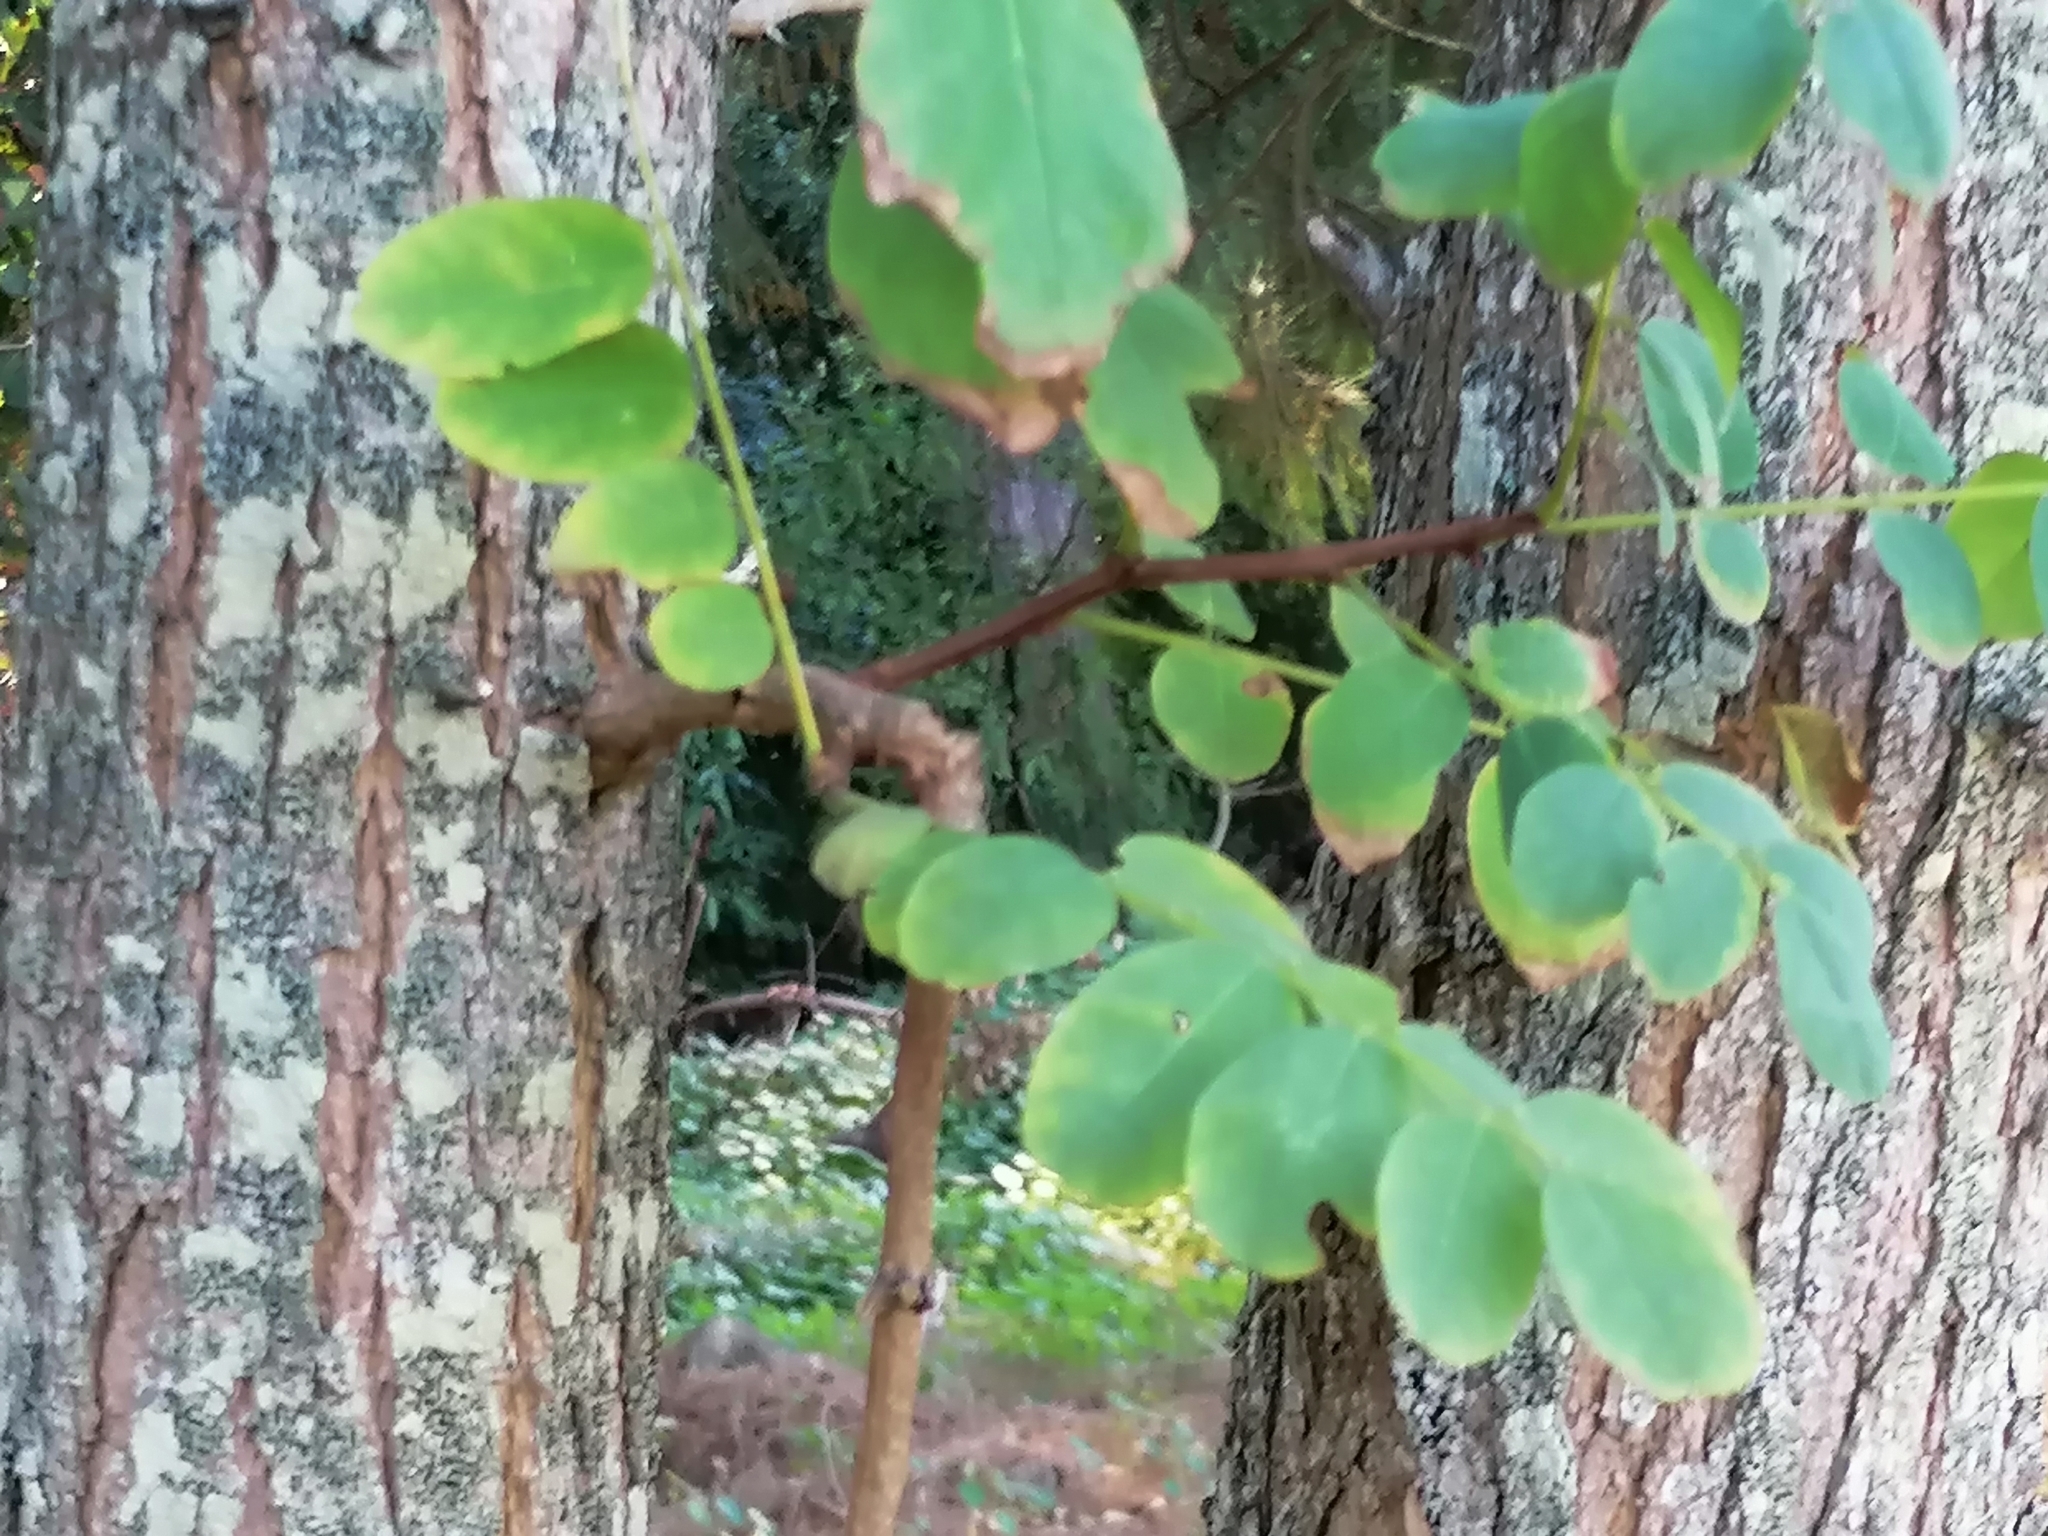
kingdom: Plantae
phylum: Tracheophyta
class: Magnoliopsida
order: Fabales
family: Fabaceae
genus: Robinia
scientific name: Robinia pseudoacacia
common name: Black locust
